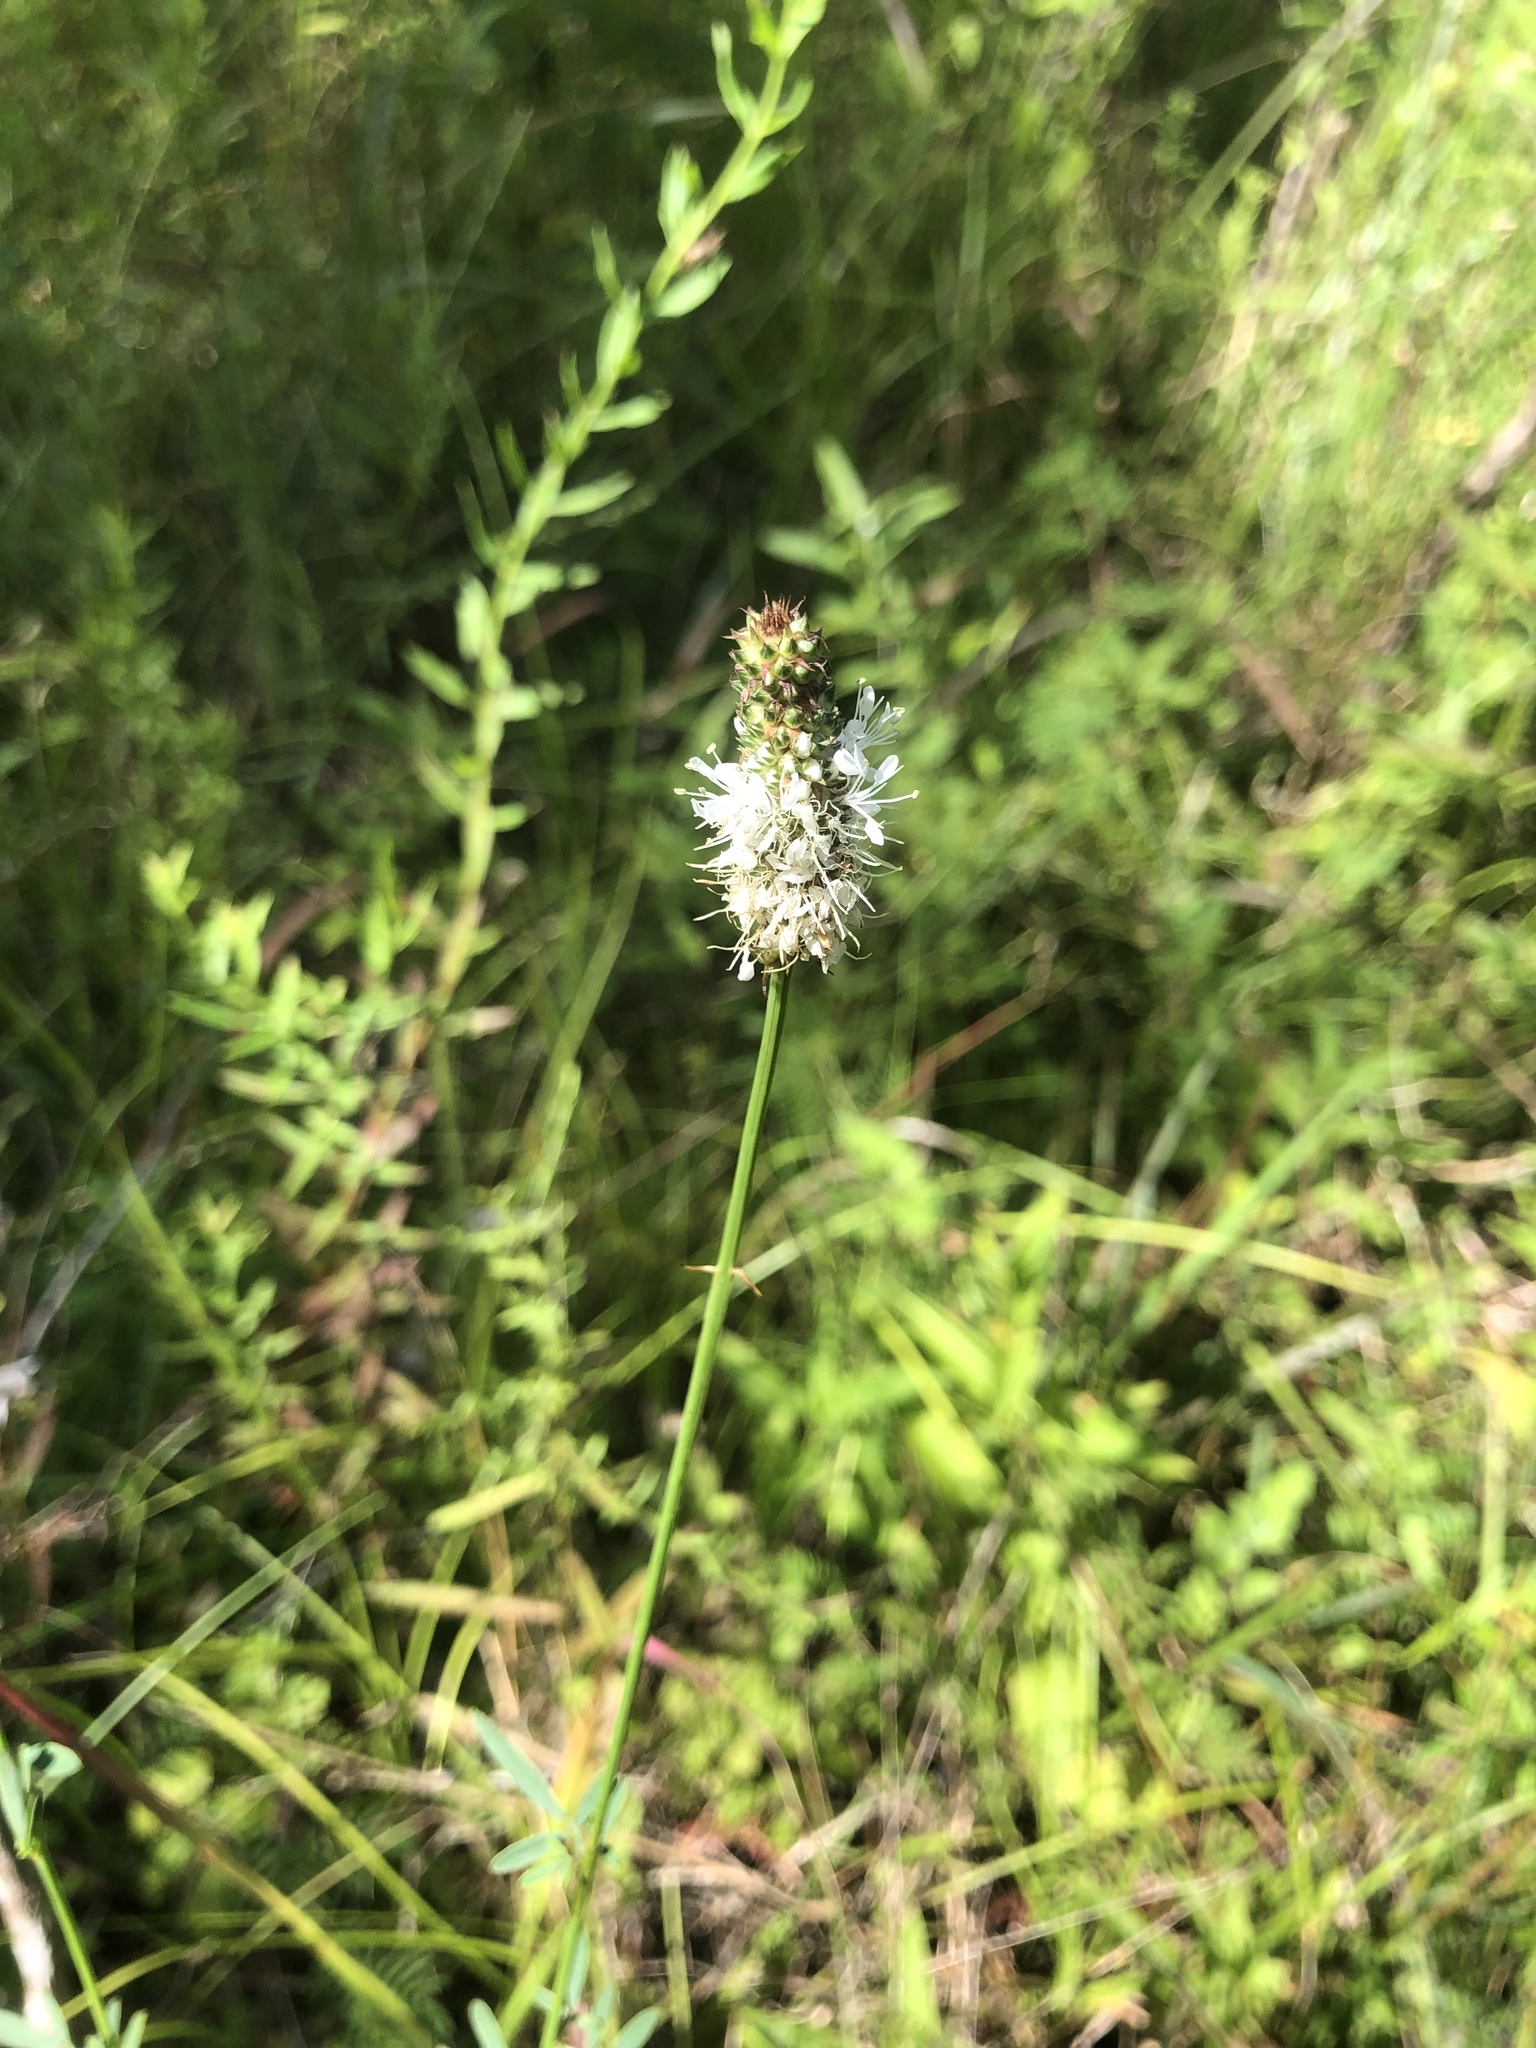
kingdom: Plantae
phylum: Tracheophyta
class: Magnoliopsida
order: Fabales
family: Fabaceae
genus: Dalea
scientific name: Dalea candida
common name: White prairie-clover
